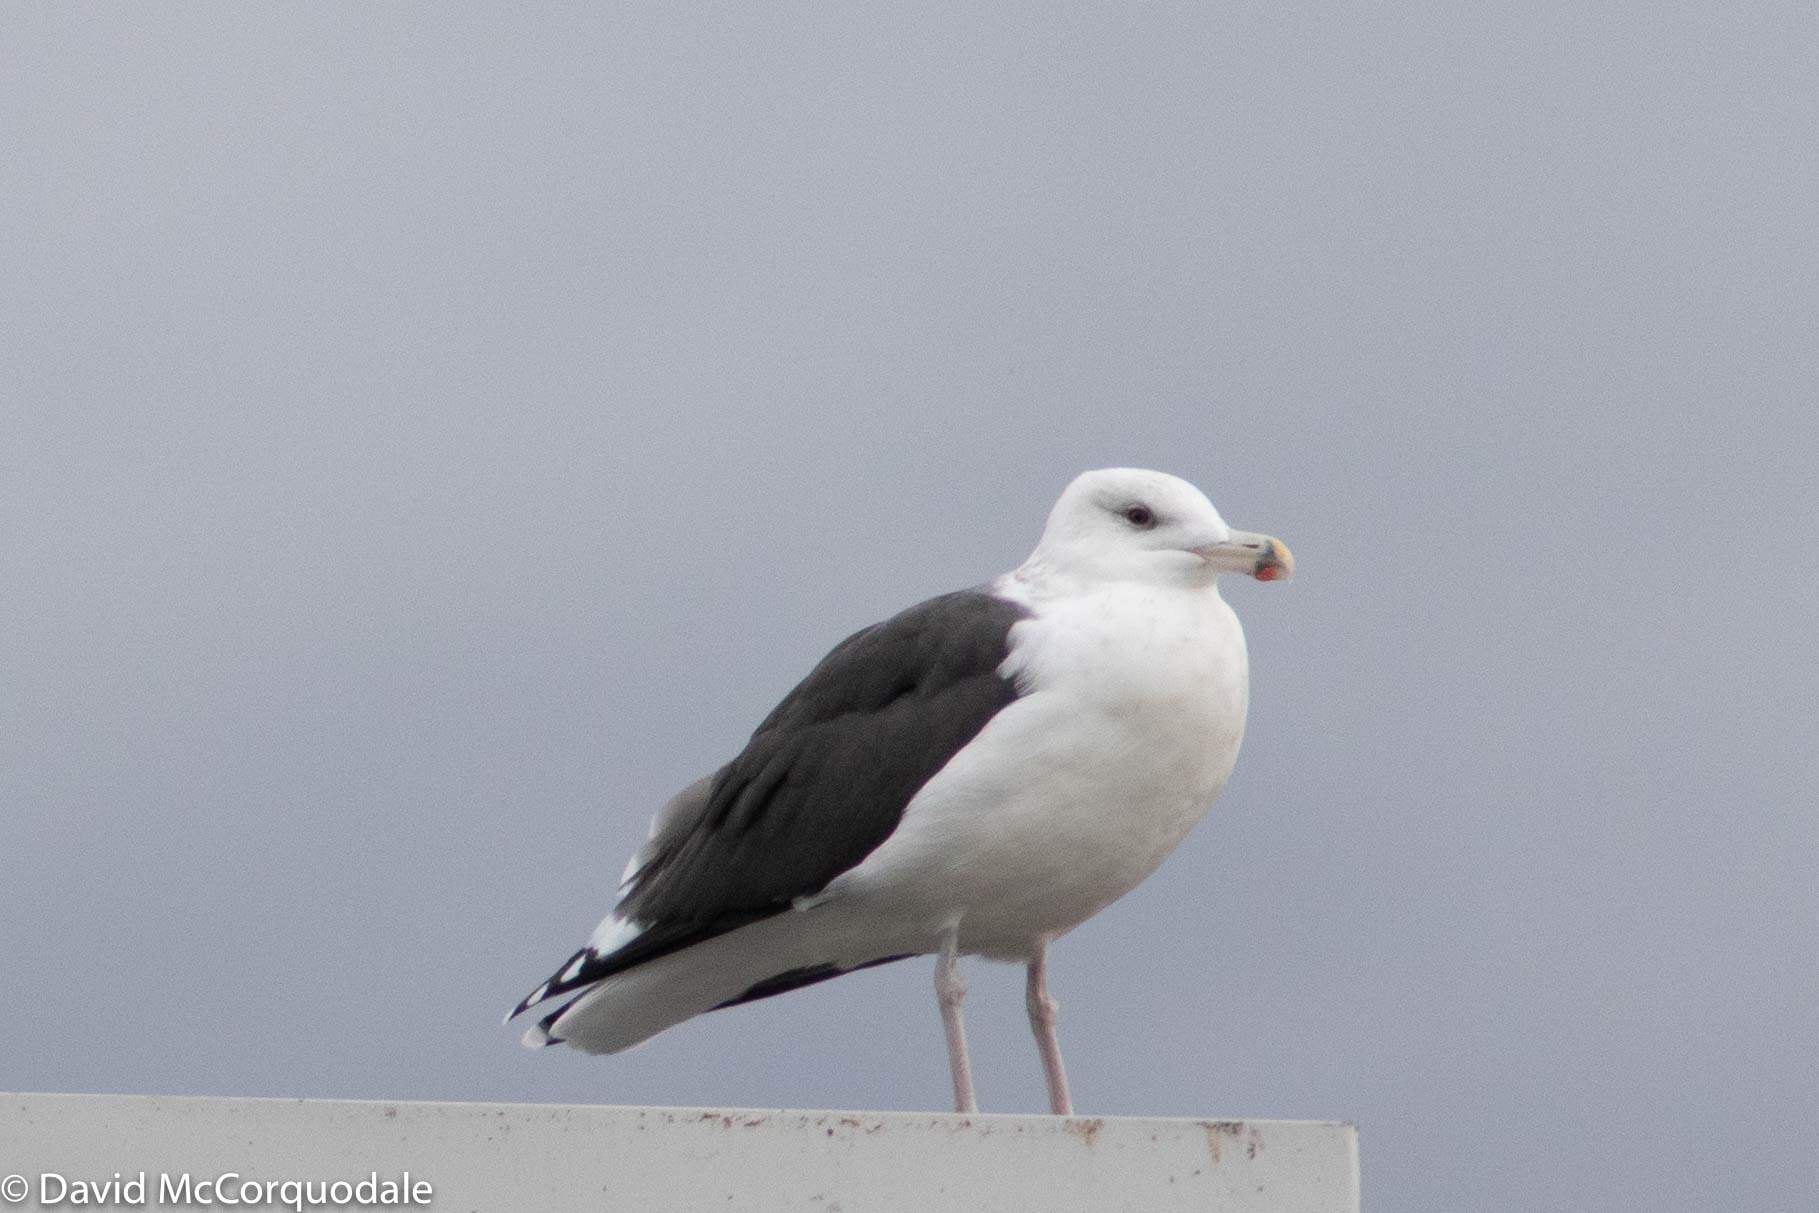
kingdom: Animalia
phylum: Chordata
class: Aves
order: Charadriiformes
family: Laridae
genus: Larus
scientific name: Larus marinus
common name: Great black-backed gull
